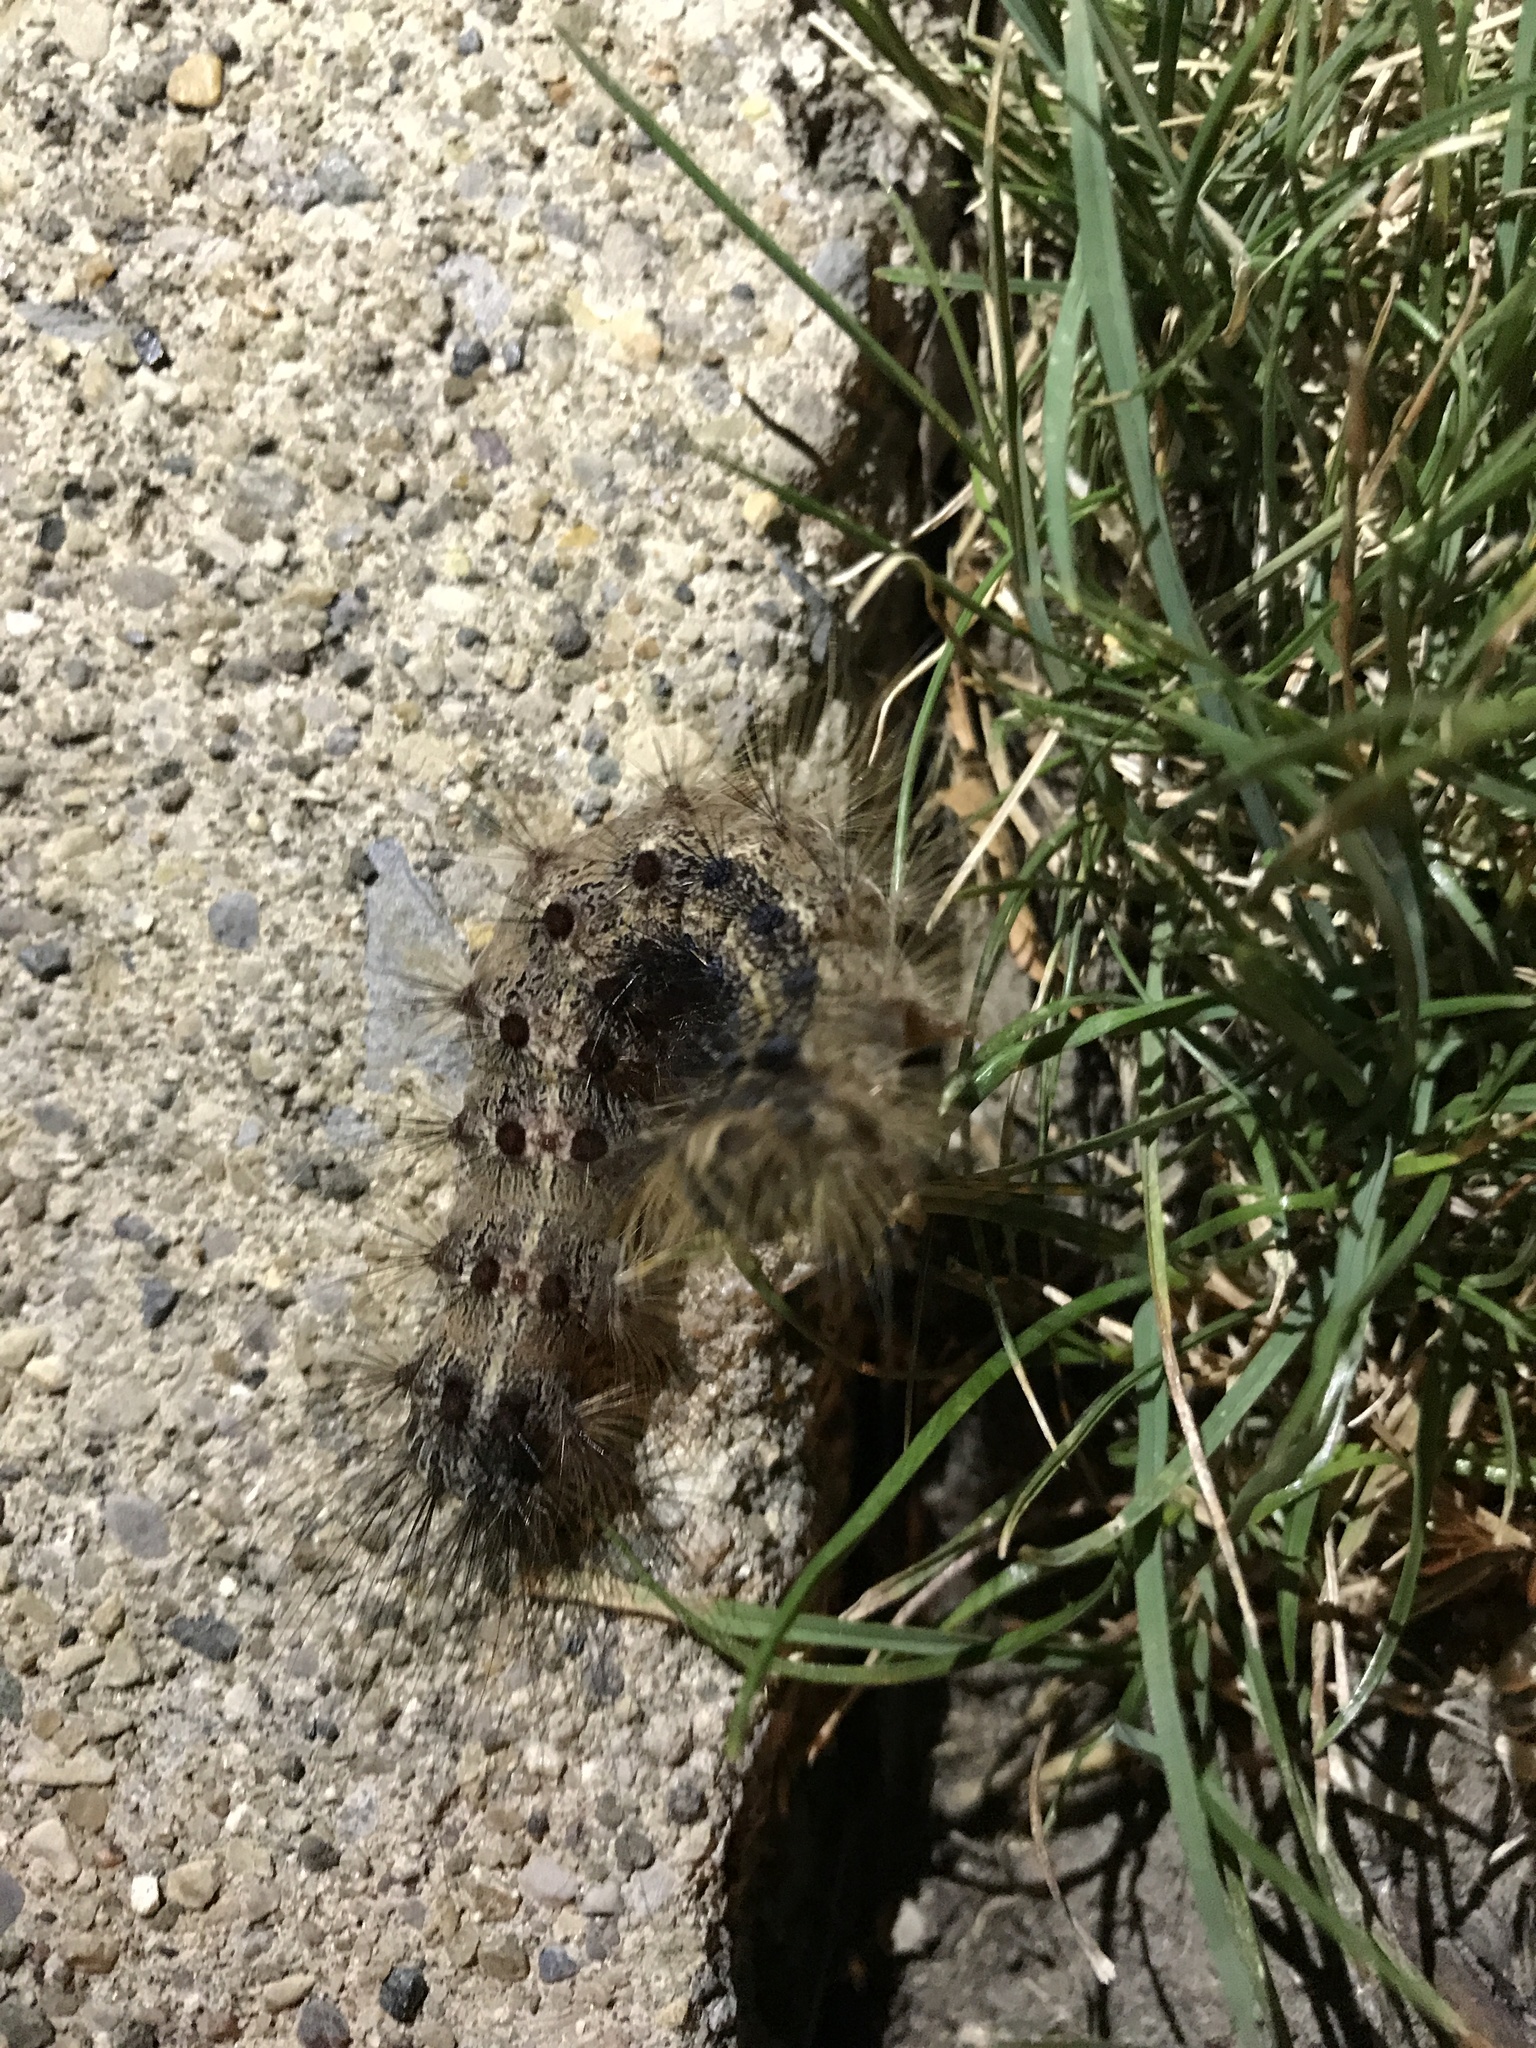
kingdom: Animalia
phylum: Arthropoda
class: Insecta
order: Lepidoptera
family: Erebidae
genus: Lymantria
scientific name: Lymantria dispar
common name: Gypsy moth
